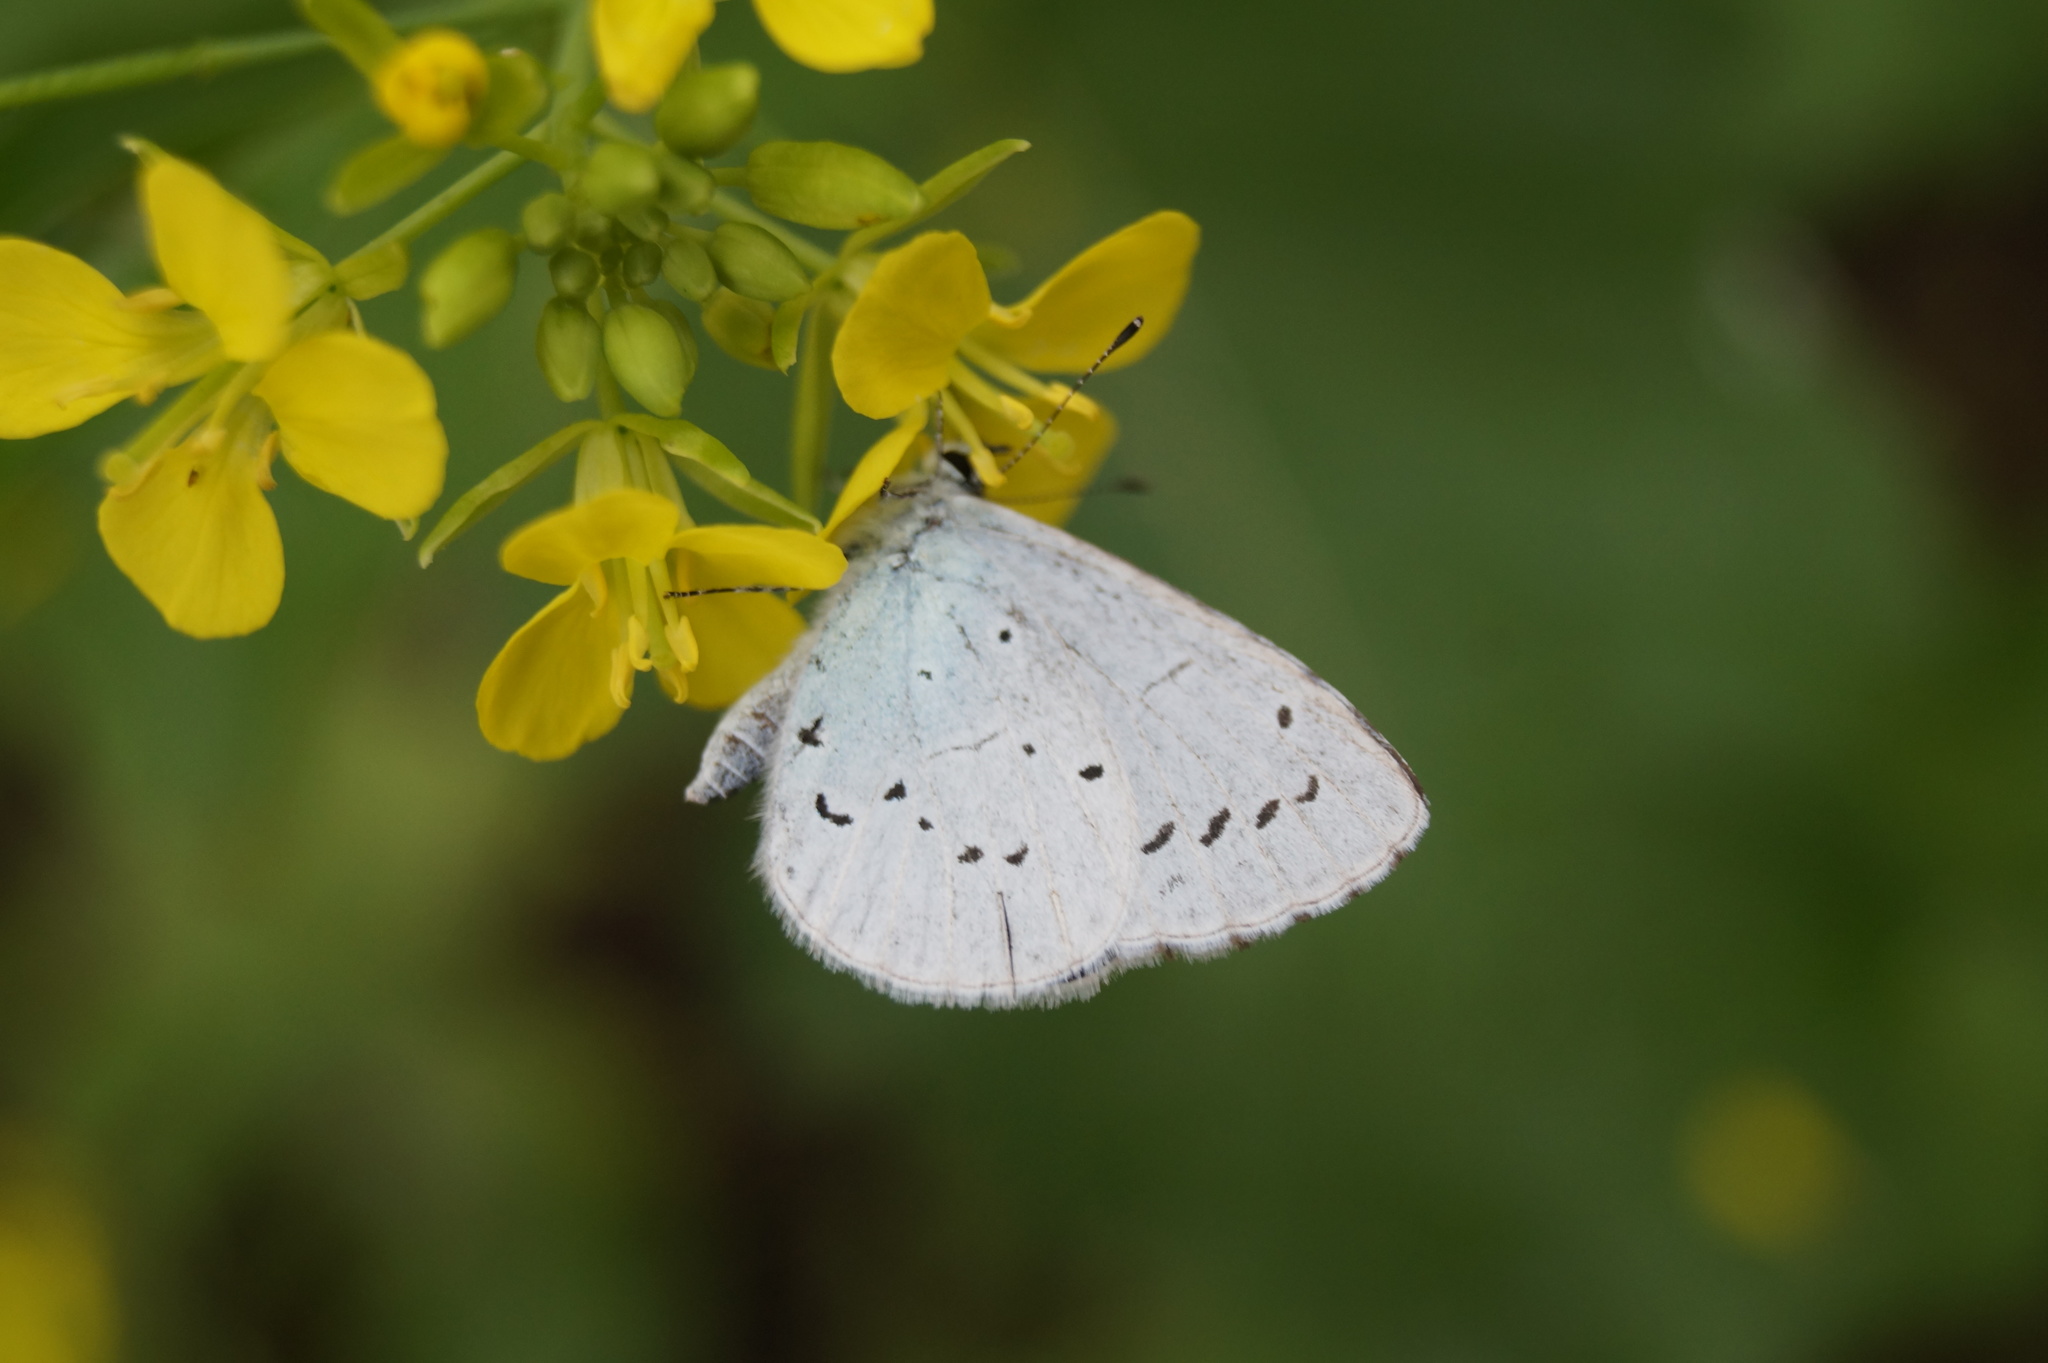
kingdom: Animalia
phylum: Arthropoda
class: Insecta
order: Lepidoptera
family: Lycaenidae
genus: Celastrina
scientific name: Celastrina argiolus
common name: Holly blue
